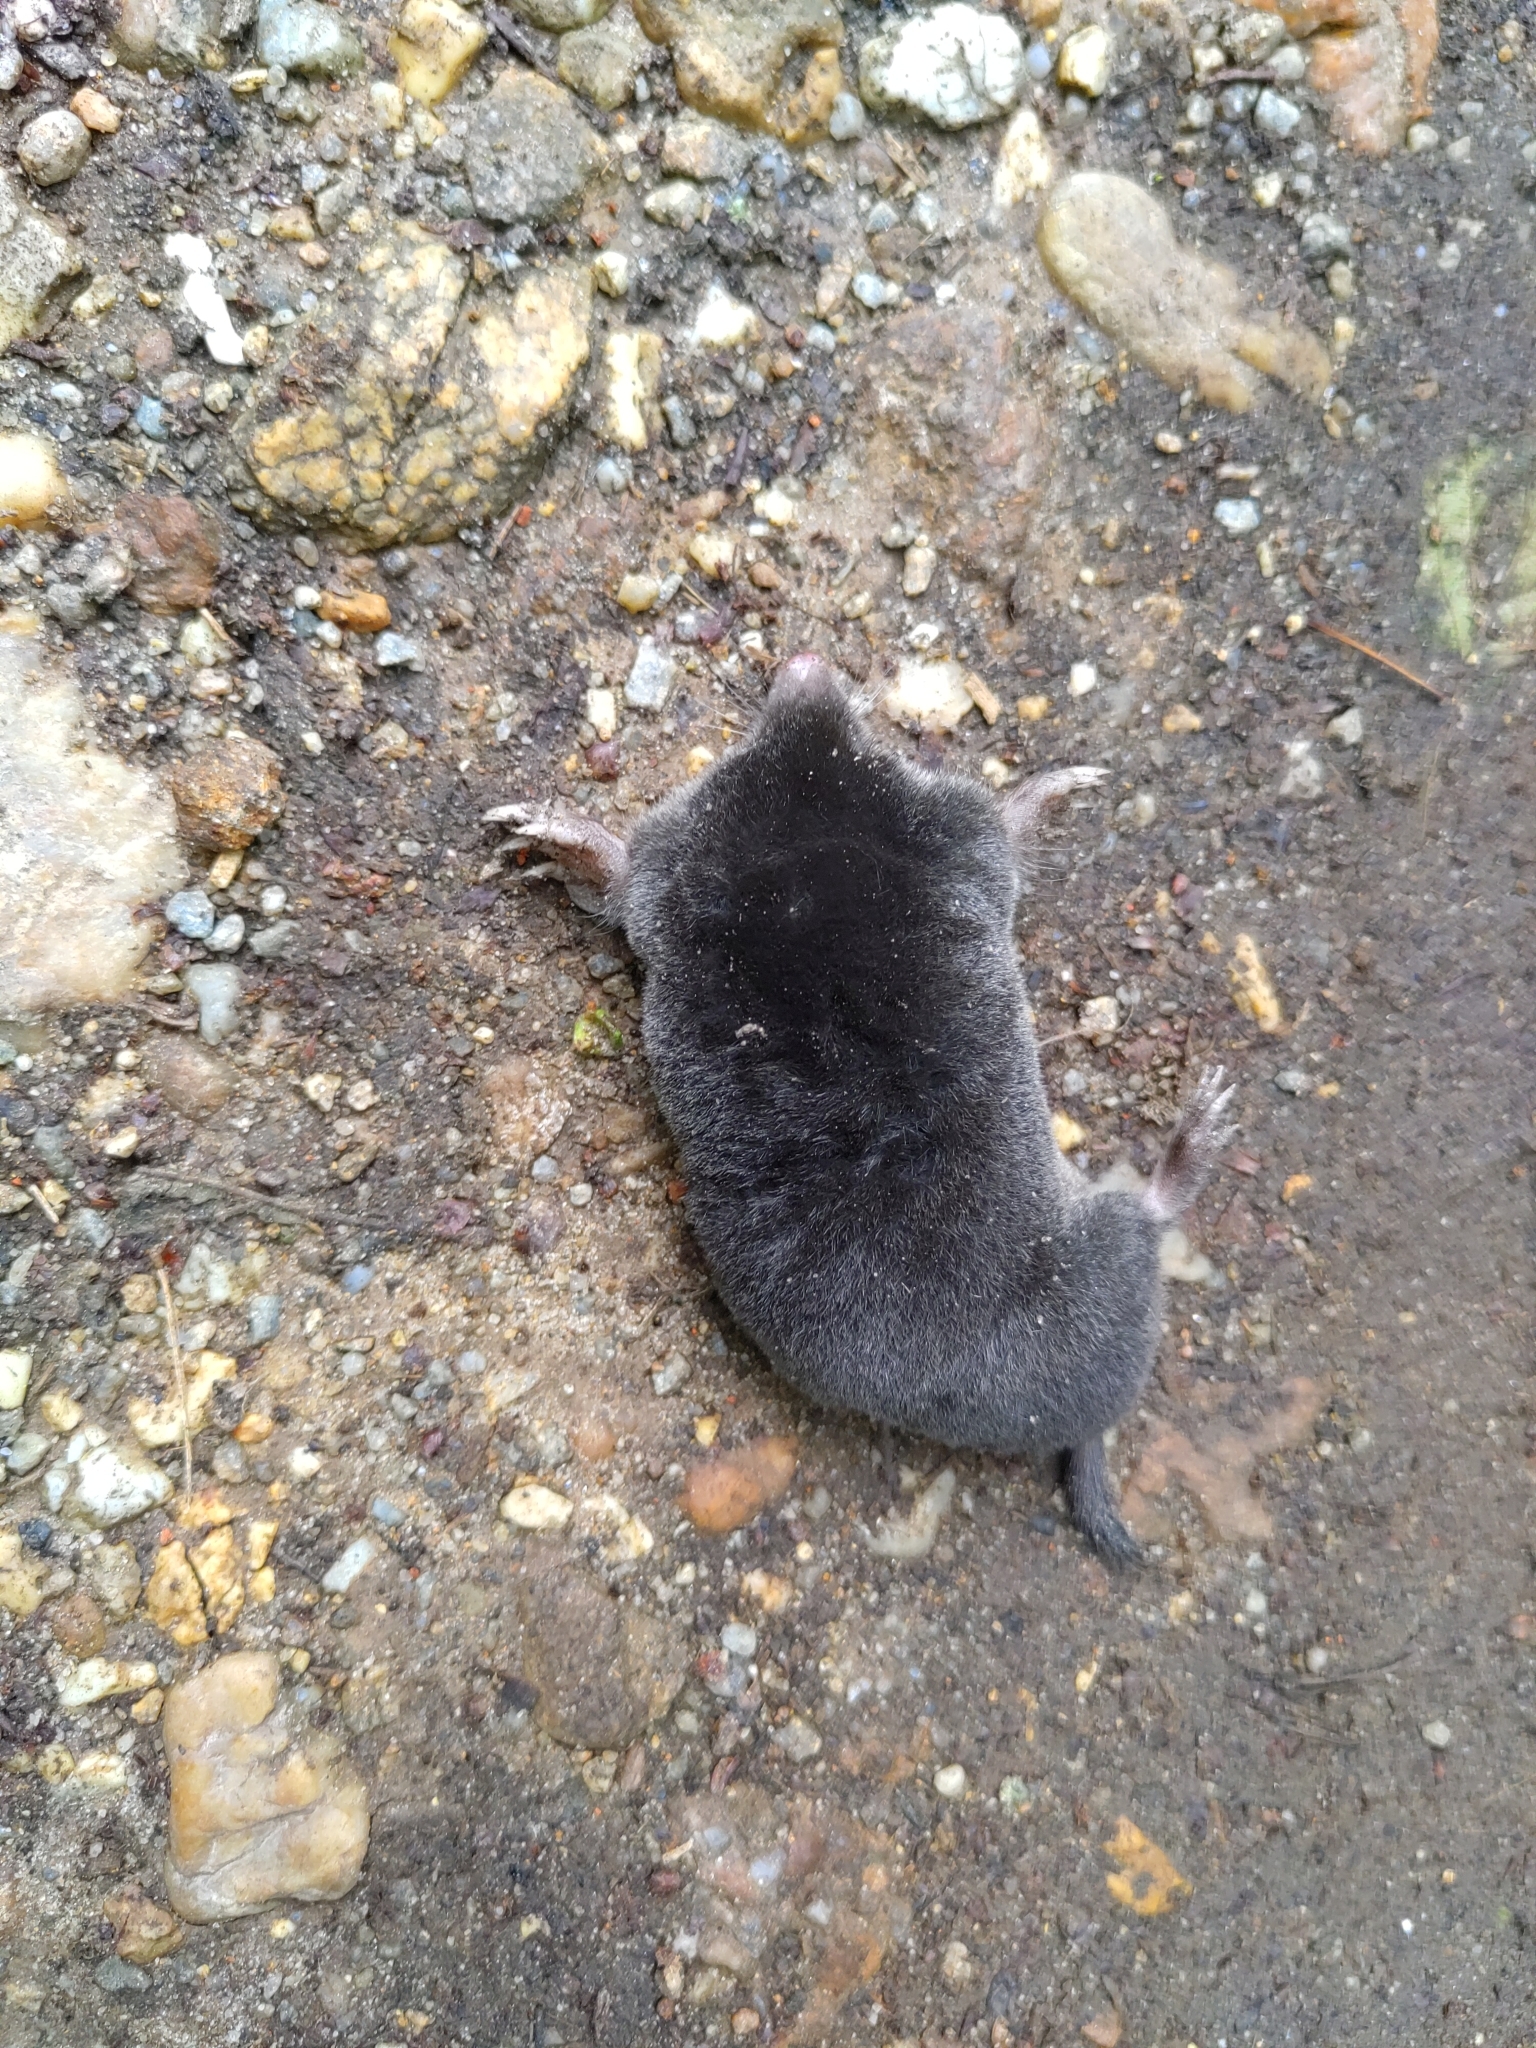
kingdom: Animalia
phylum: Chordata
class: Mammalia
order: Soricomorpha
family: Talpidae
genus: Talpa
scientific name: Talpa europaea
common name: European mole
